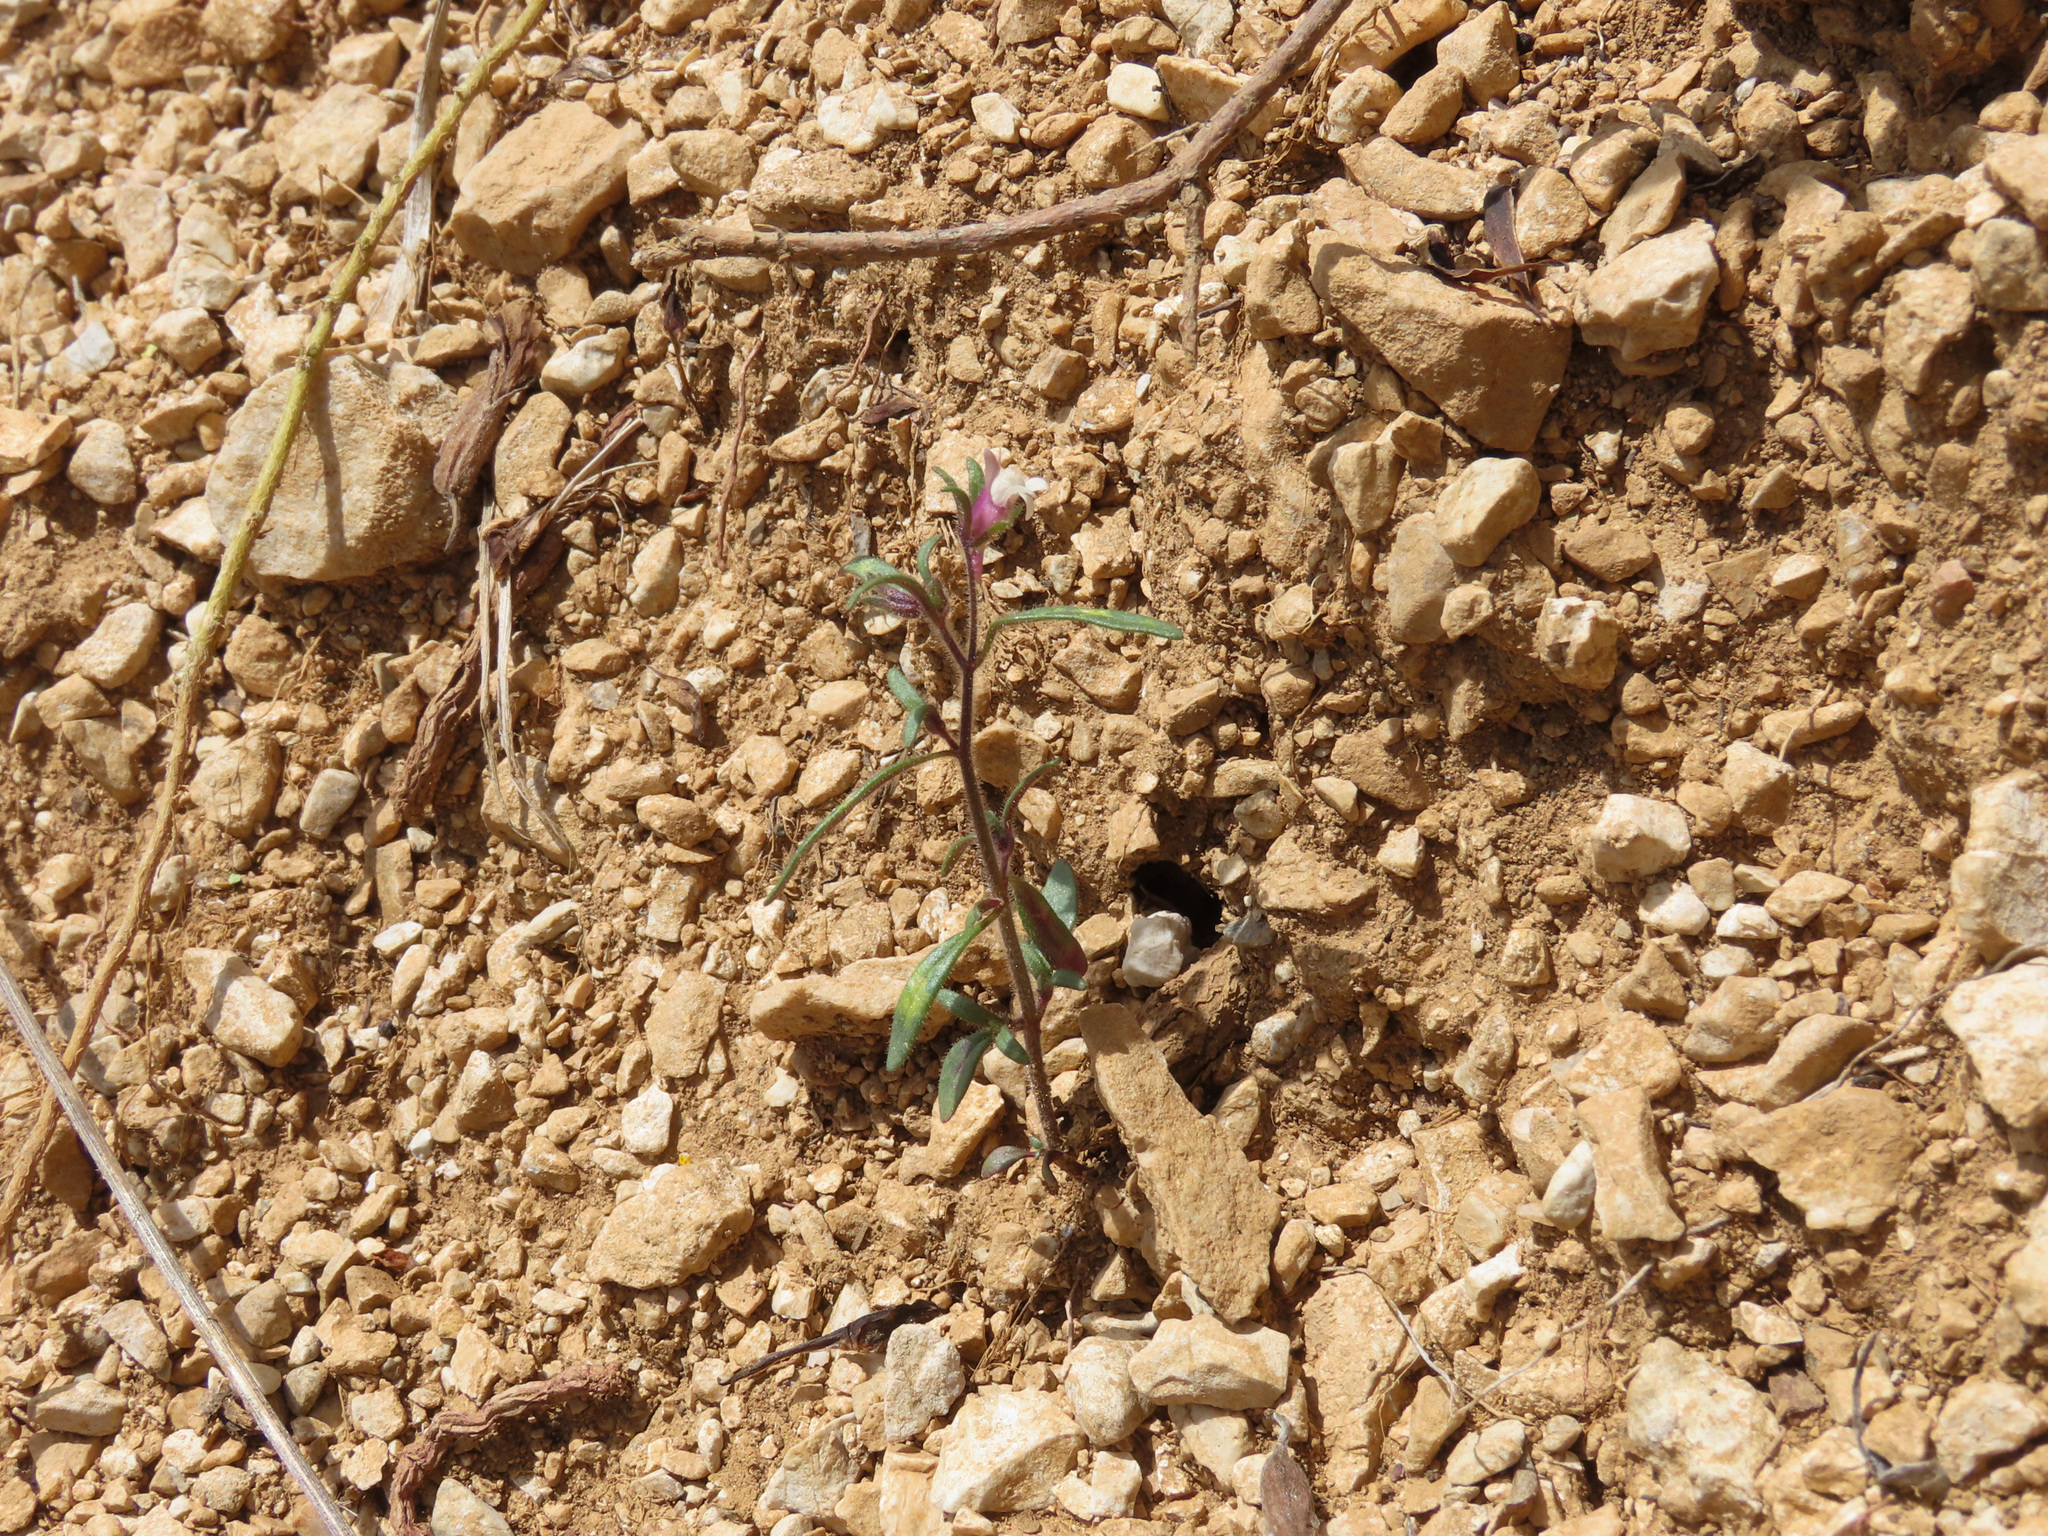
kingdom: Plantae
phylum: Tracheophyta
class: Magnoliopsida
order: Lamiales
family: Plantaginaceae
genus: Chaenorhinum
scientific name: Chaenorhinum minus
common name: Dwarf snapdragon
